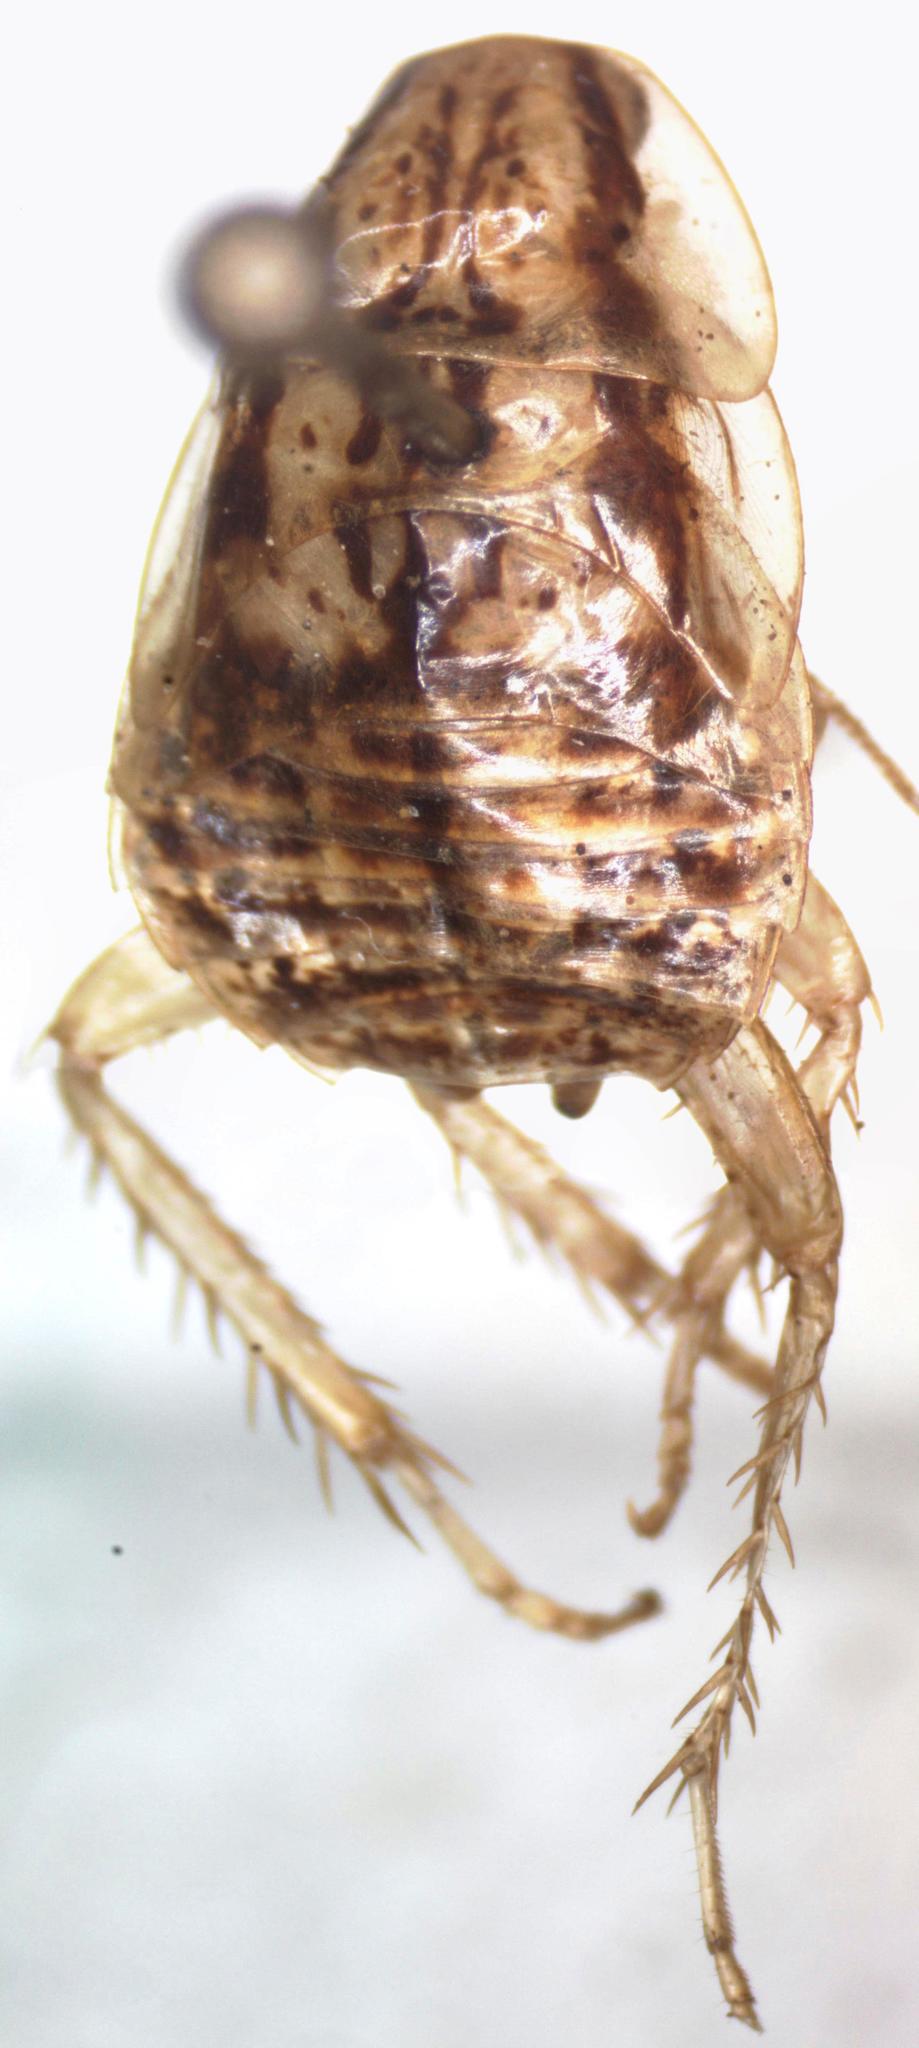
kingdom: Animalia
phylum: Arthropoda
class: Insecta
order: Blattodea
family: Ectobiidae
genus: Imblattella
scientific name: Imblattella chagrensis
